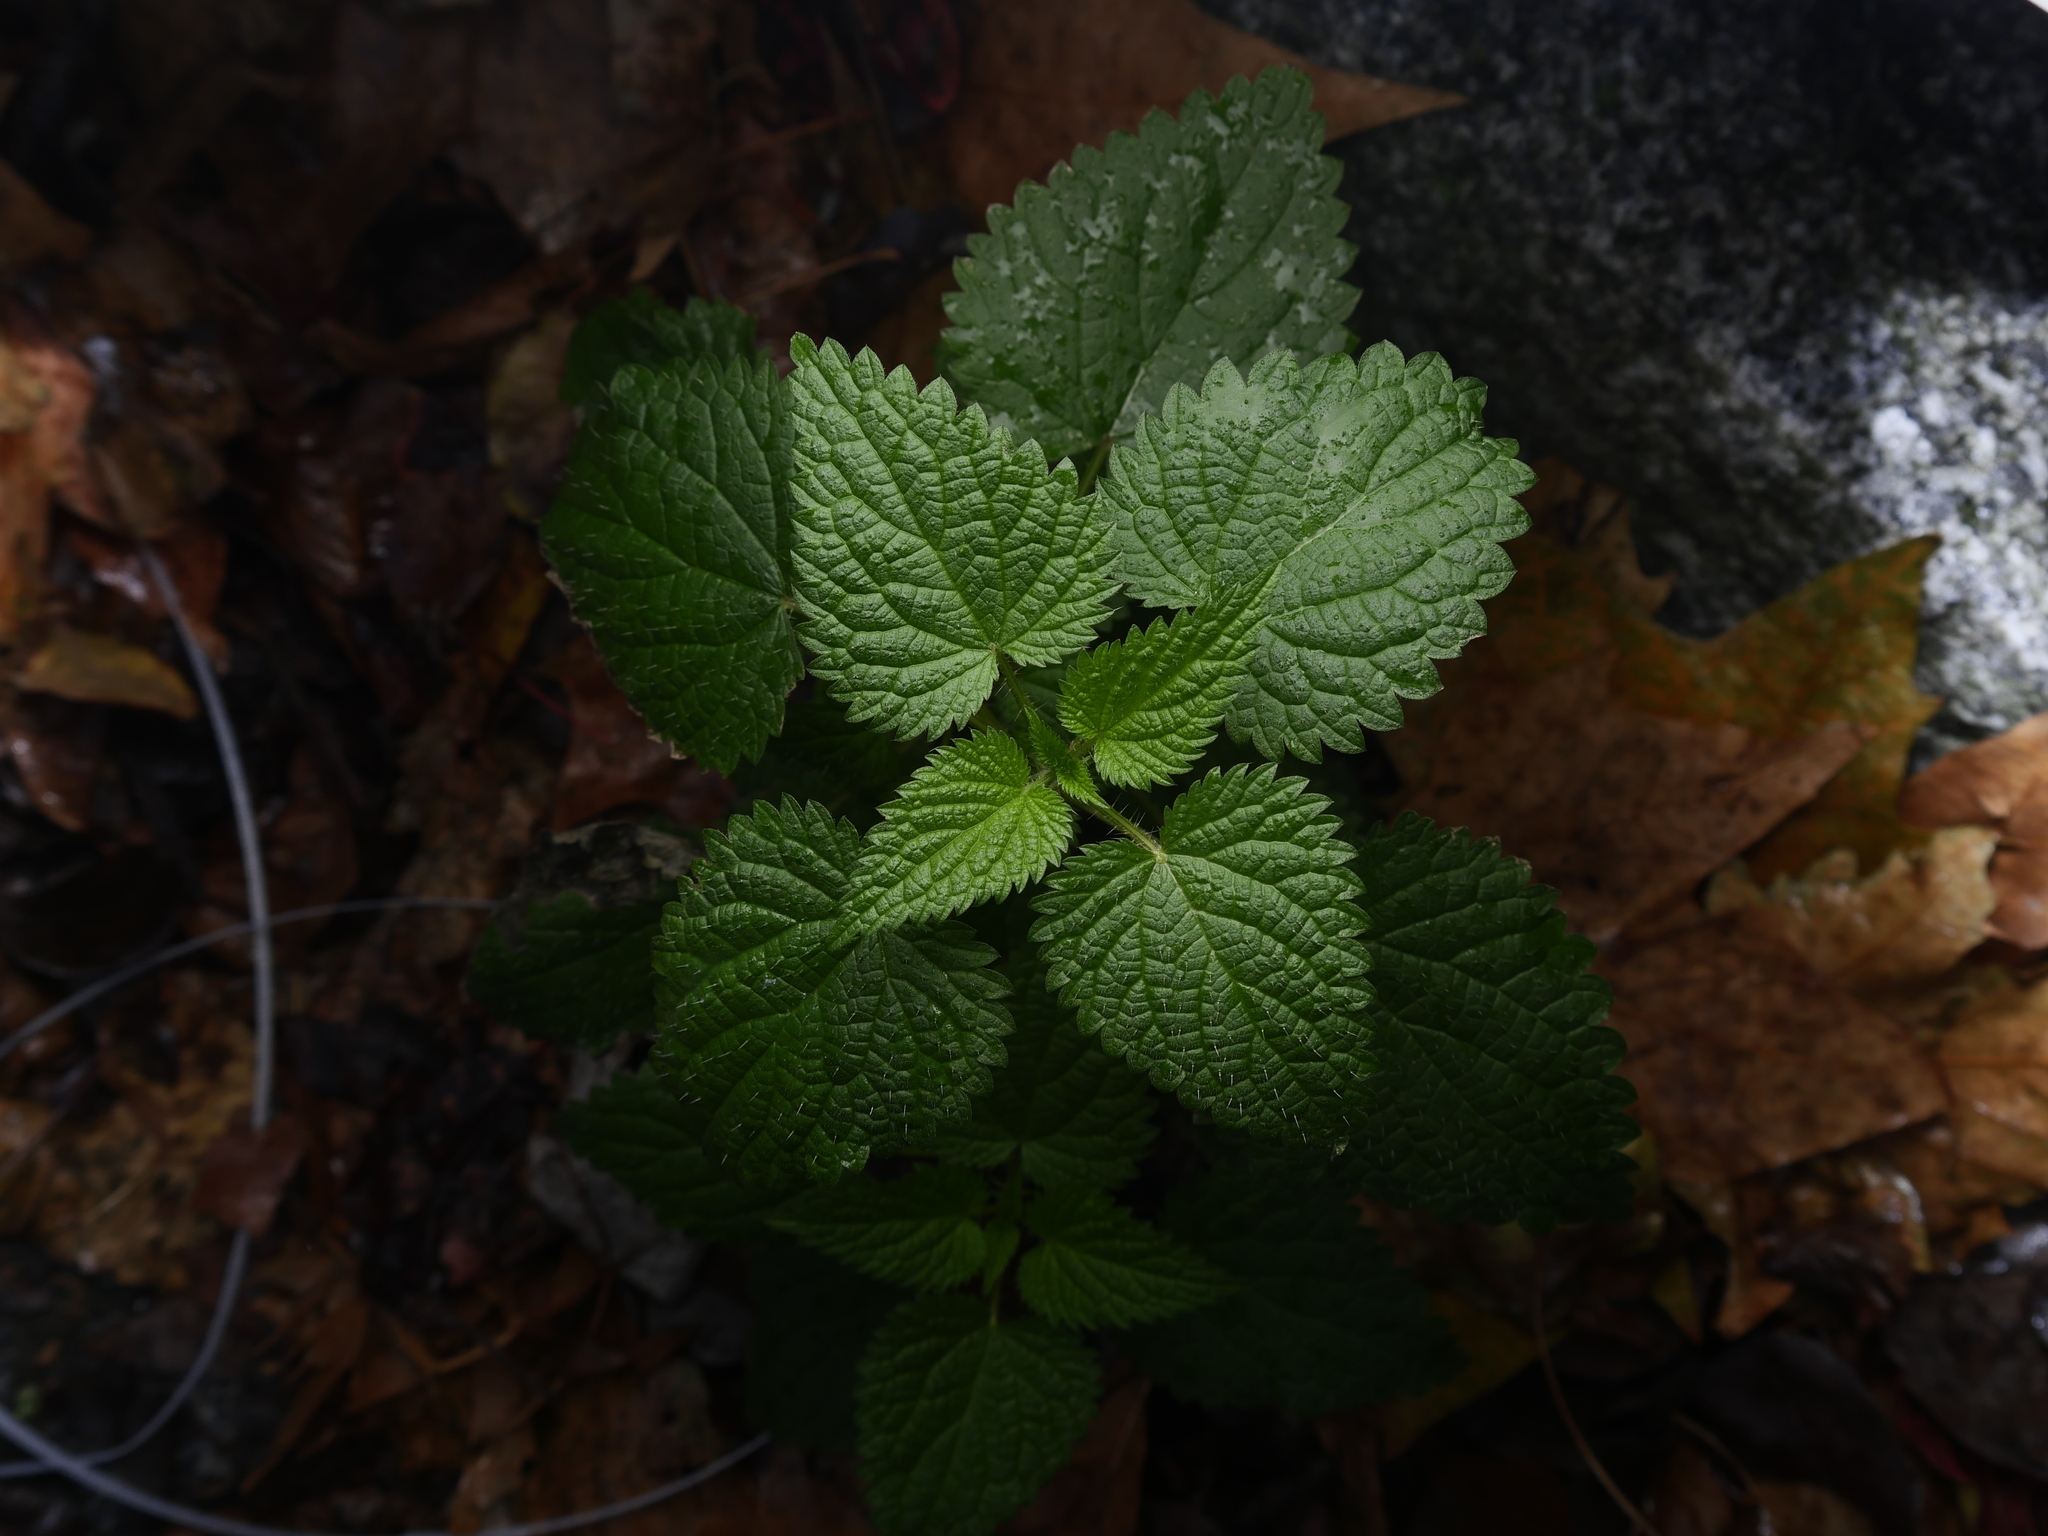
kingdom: Plantae
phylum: Tracheophyta
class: Magnoliopsida
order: Rosales
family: Urticaceae
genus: Urtica
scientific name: Urtica dioica
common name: Common nettle
